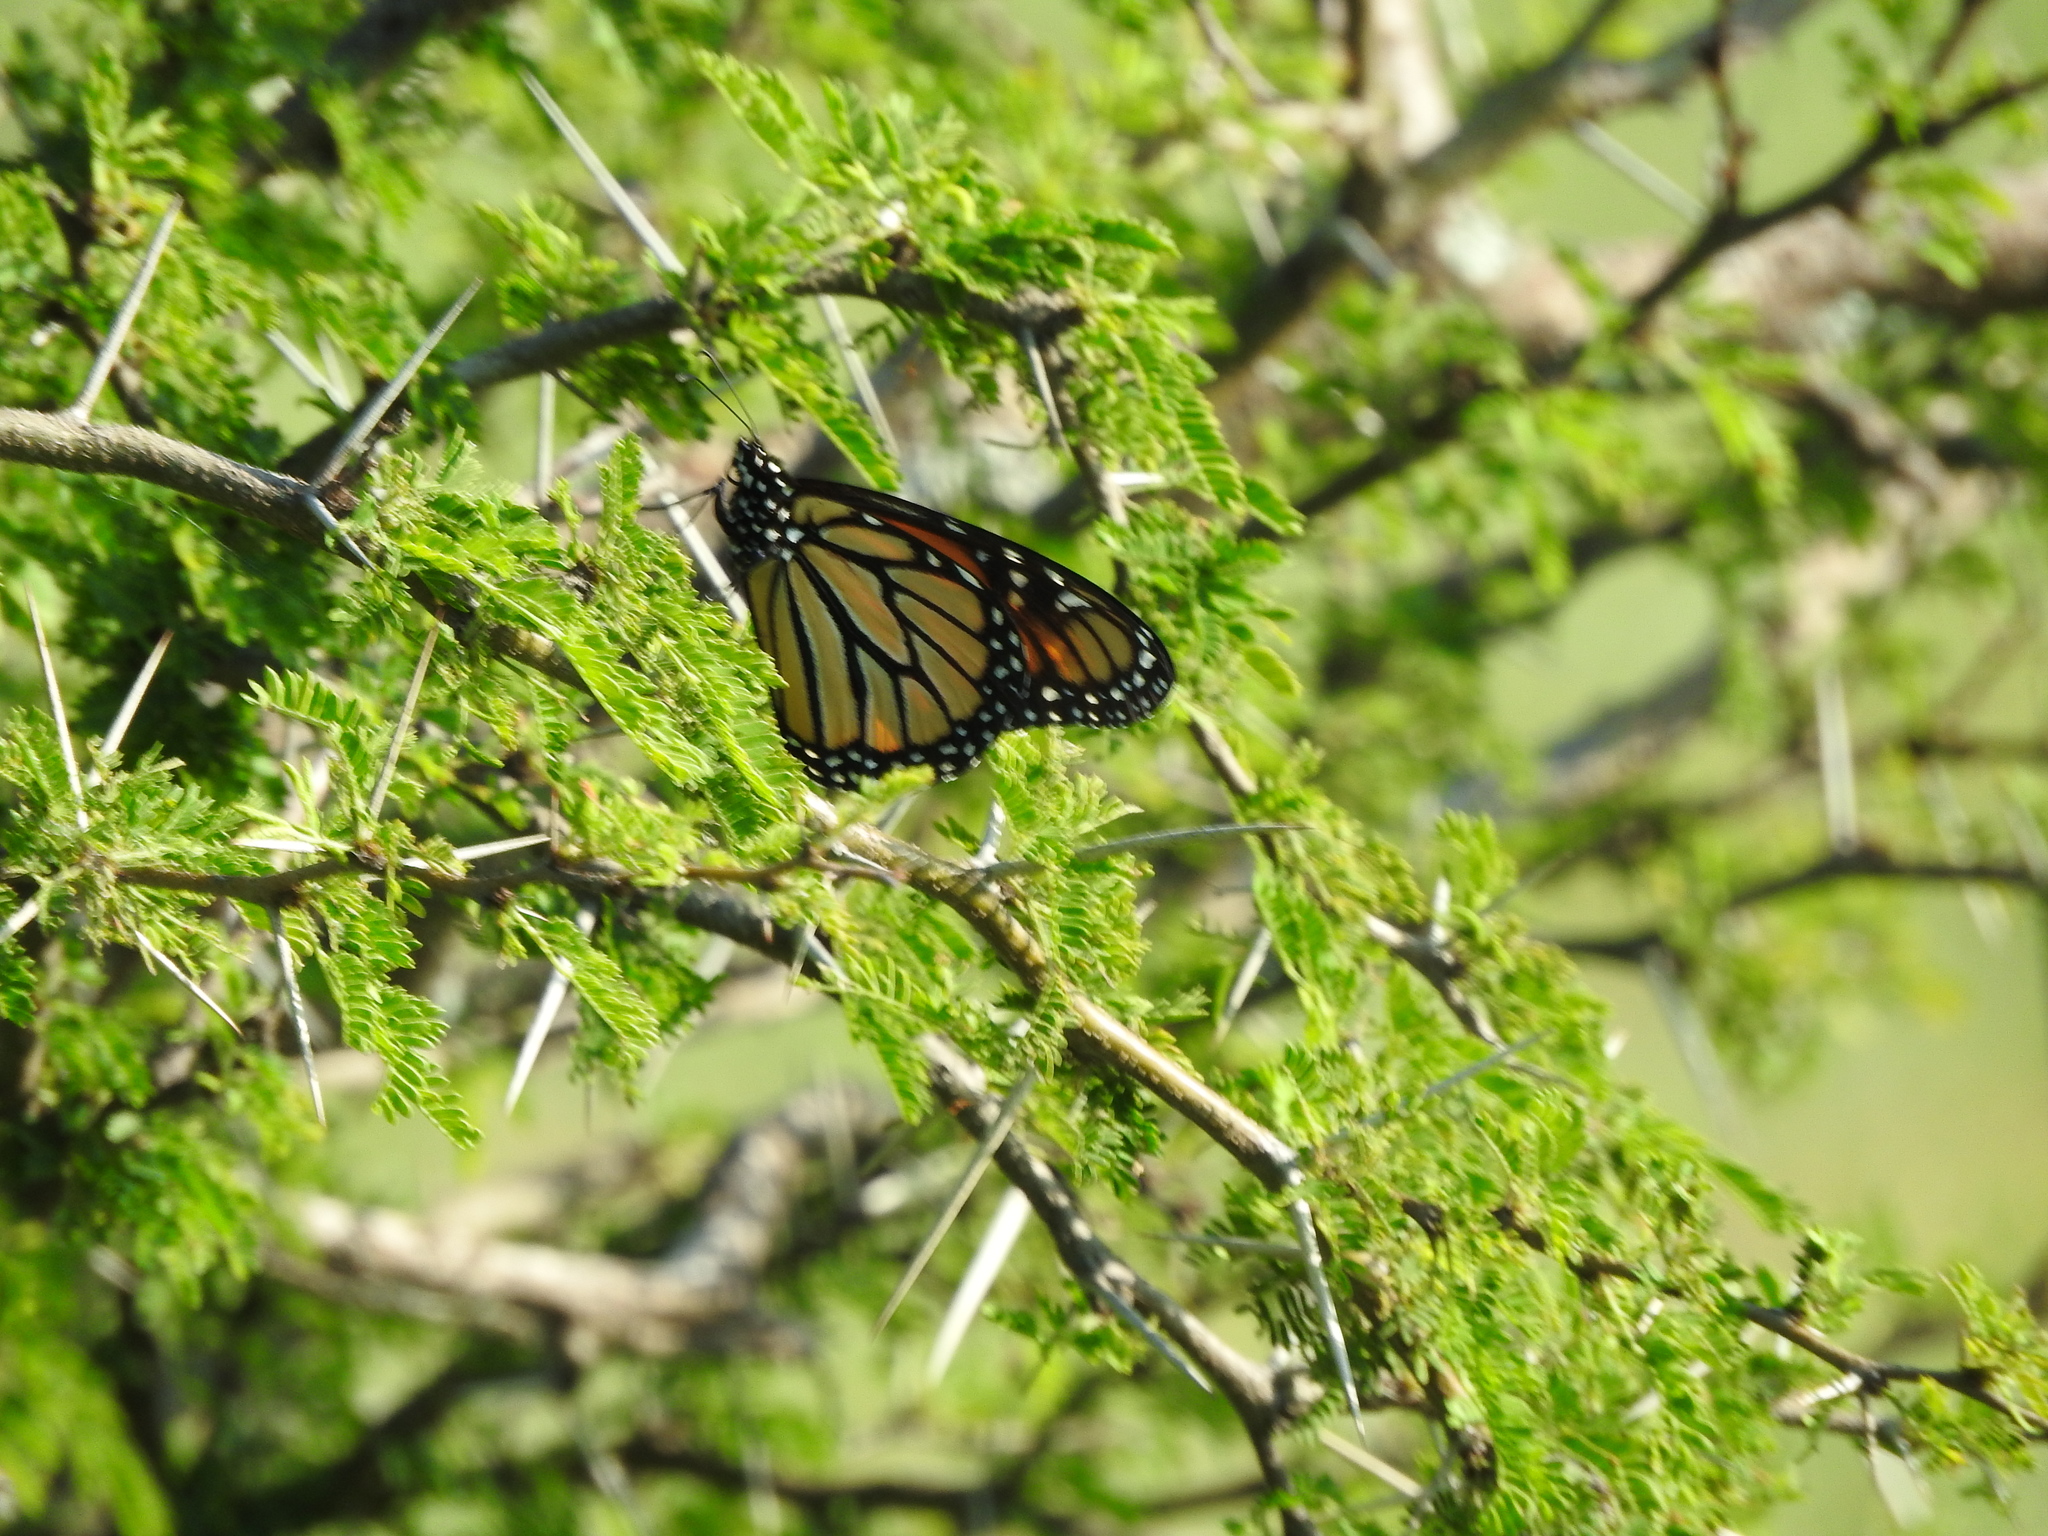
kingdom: Animalia
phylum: Arthropoda
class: Insecta
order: Lepidoptera
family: Nymphalidae
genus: Danaus
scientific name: Danaus plexippus
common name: Monarch
